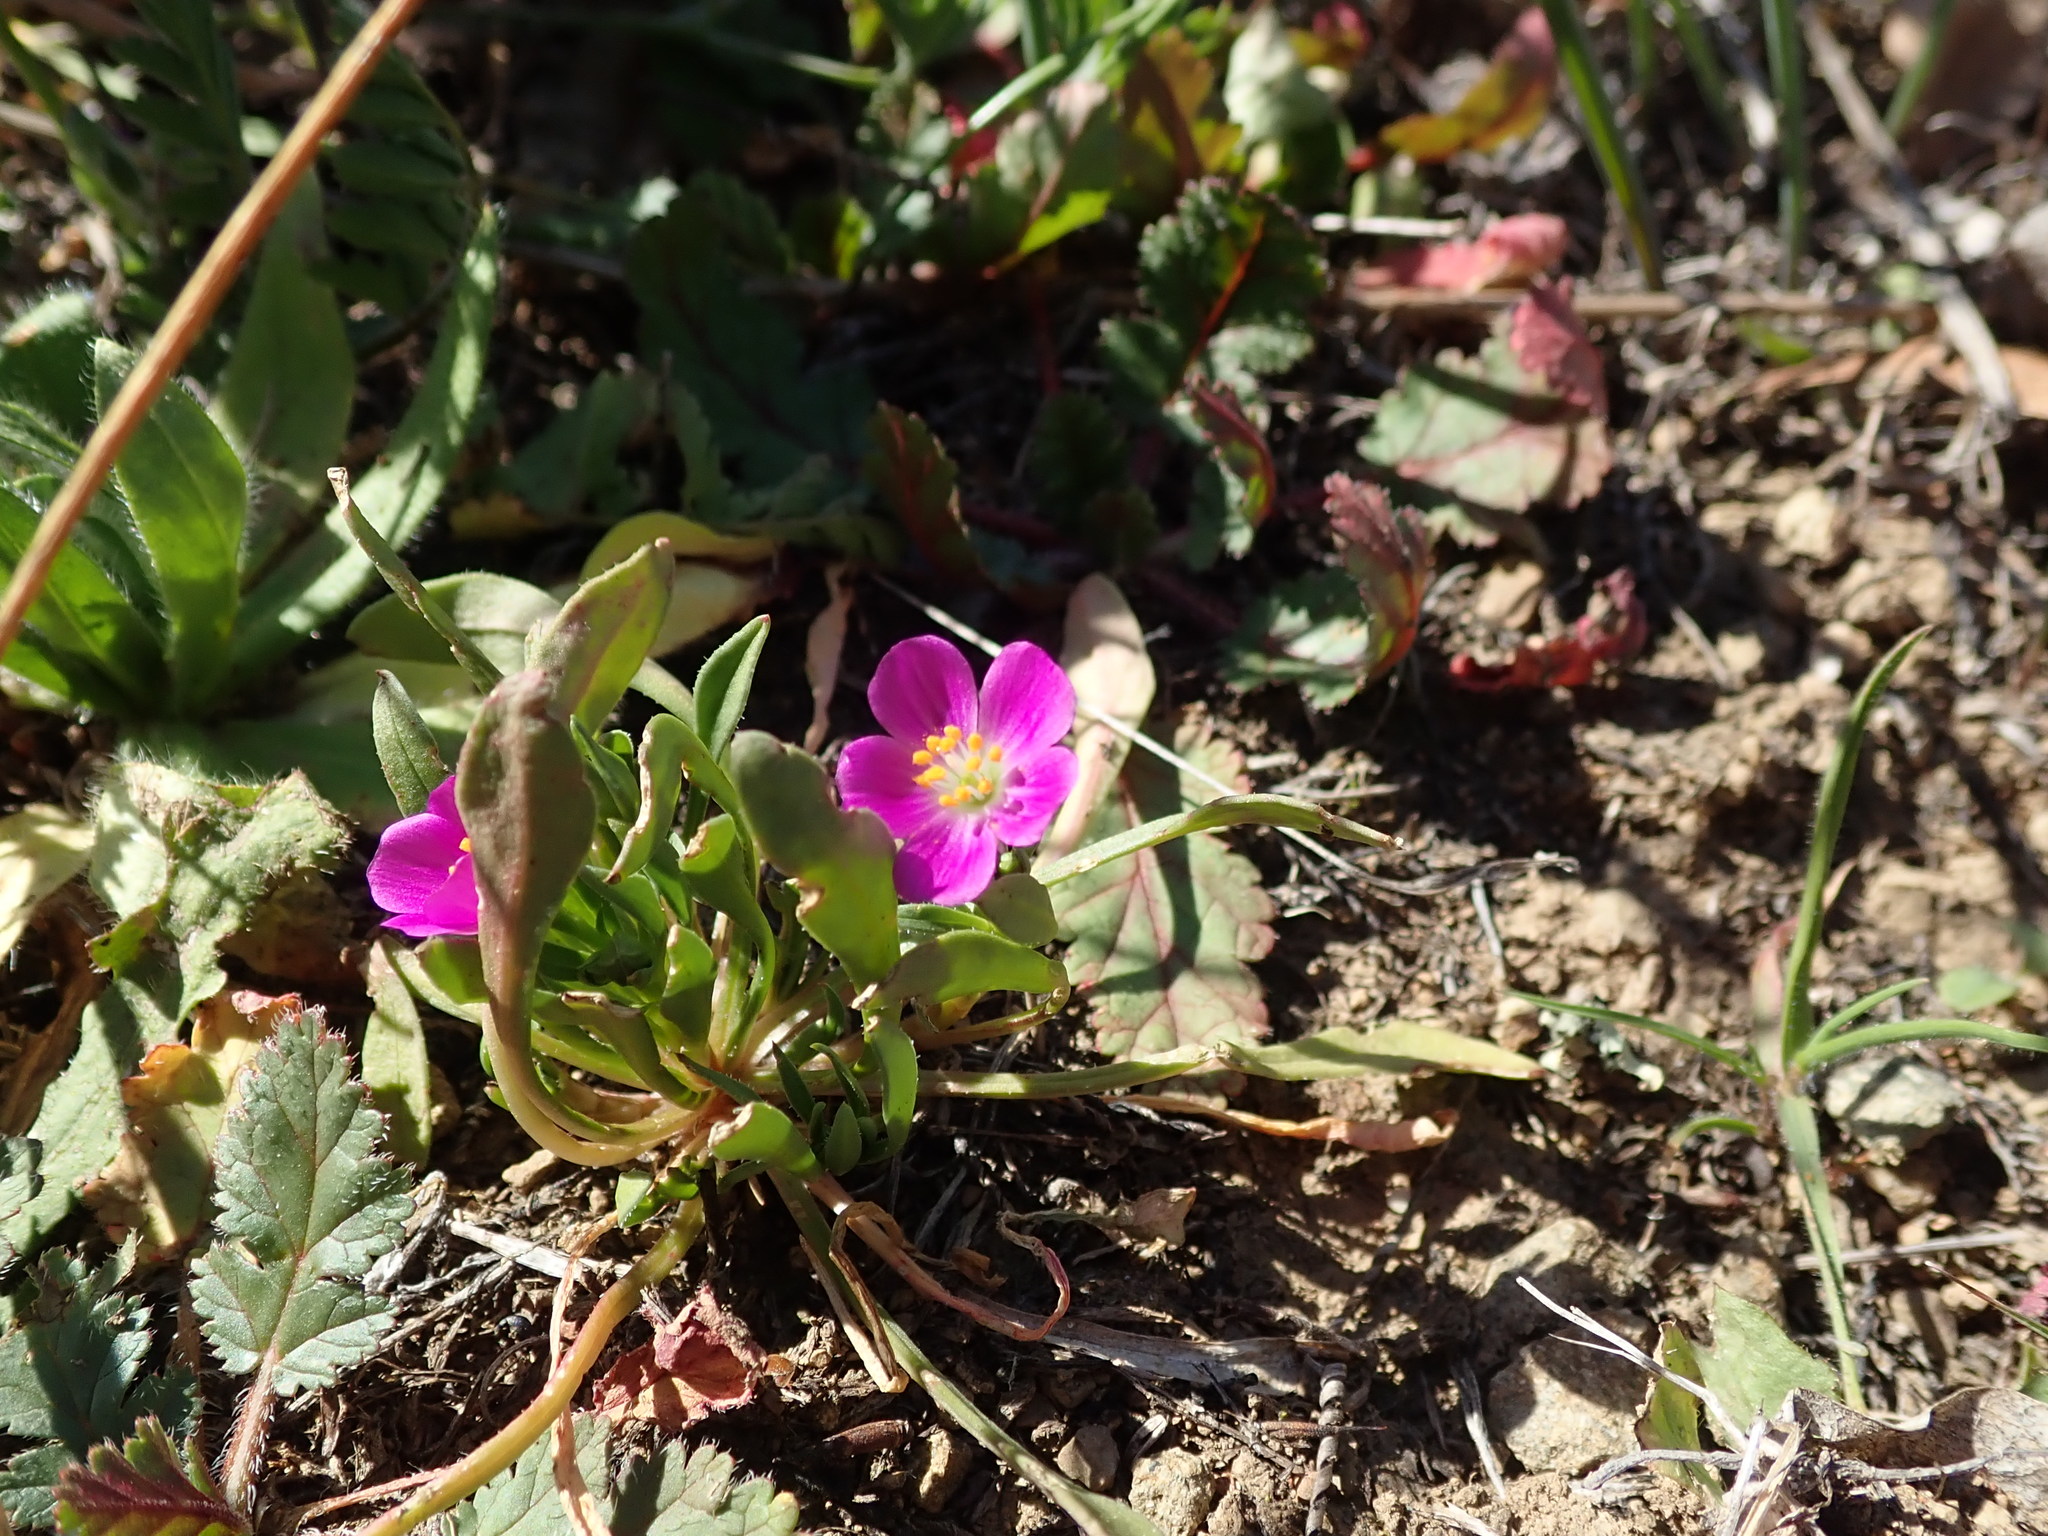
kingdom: Plantae
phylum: Tracheophyta
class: Magnoliopsida
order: Caryophyllales
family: Montiaceae
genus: Calandrinia
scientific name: Calandrinia menziesii
